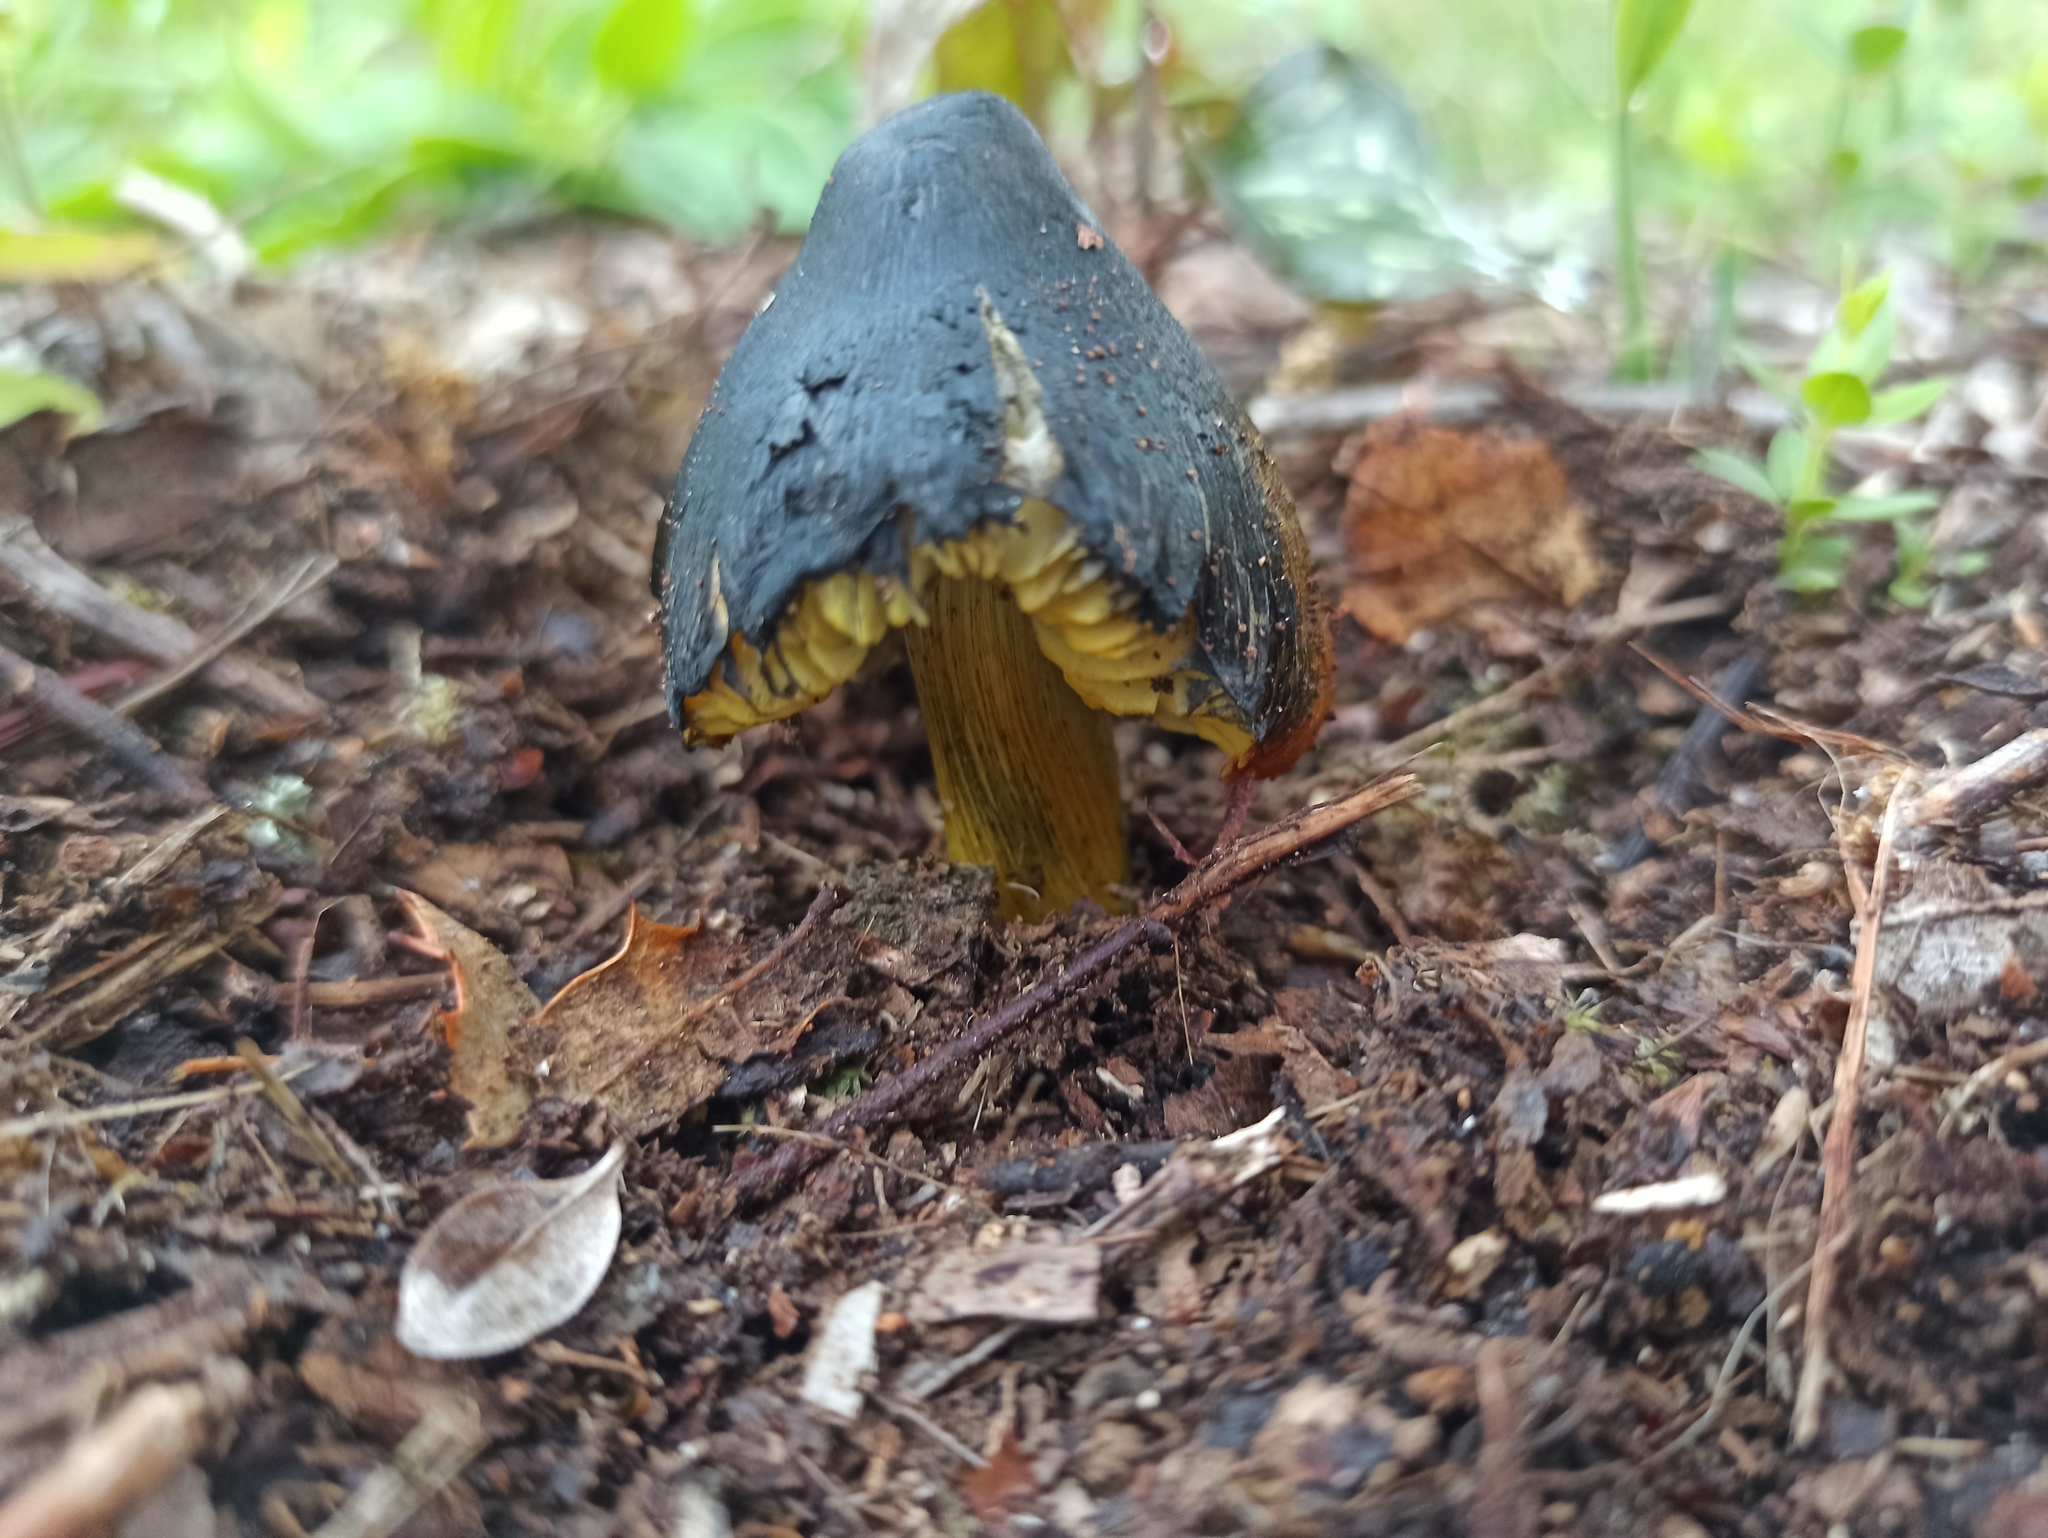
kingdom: Fungi
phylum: Basidiomycota
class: Agaricomycetes
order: Agaricales
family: Hygrophoraceae
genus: Hygrocybe
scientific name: Hygrocybe conica
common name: Blackening wax-cap
